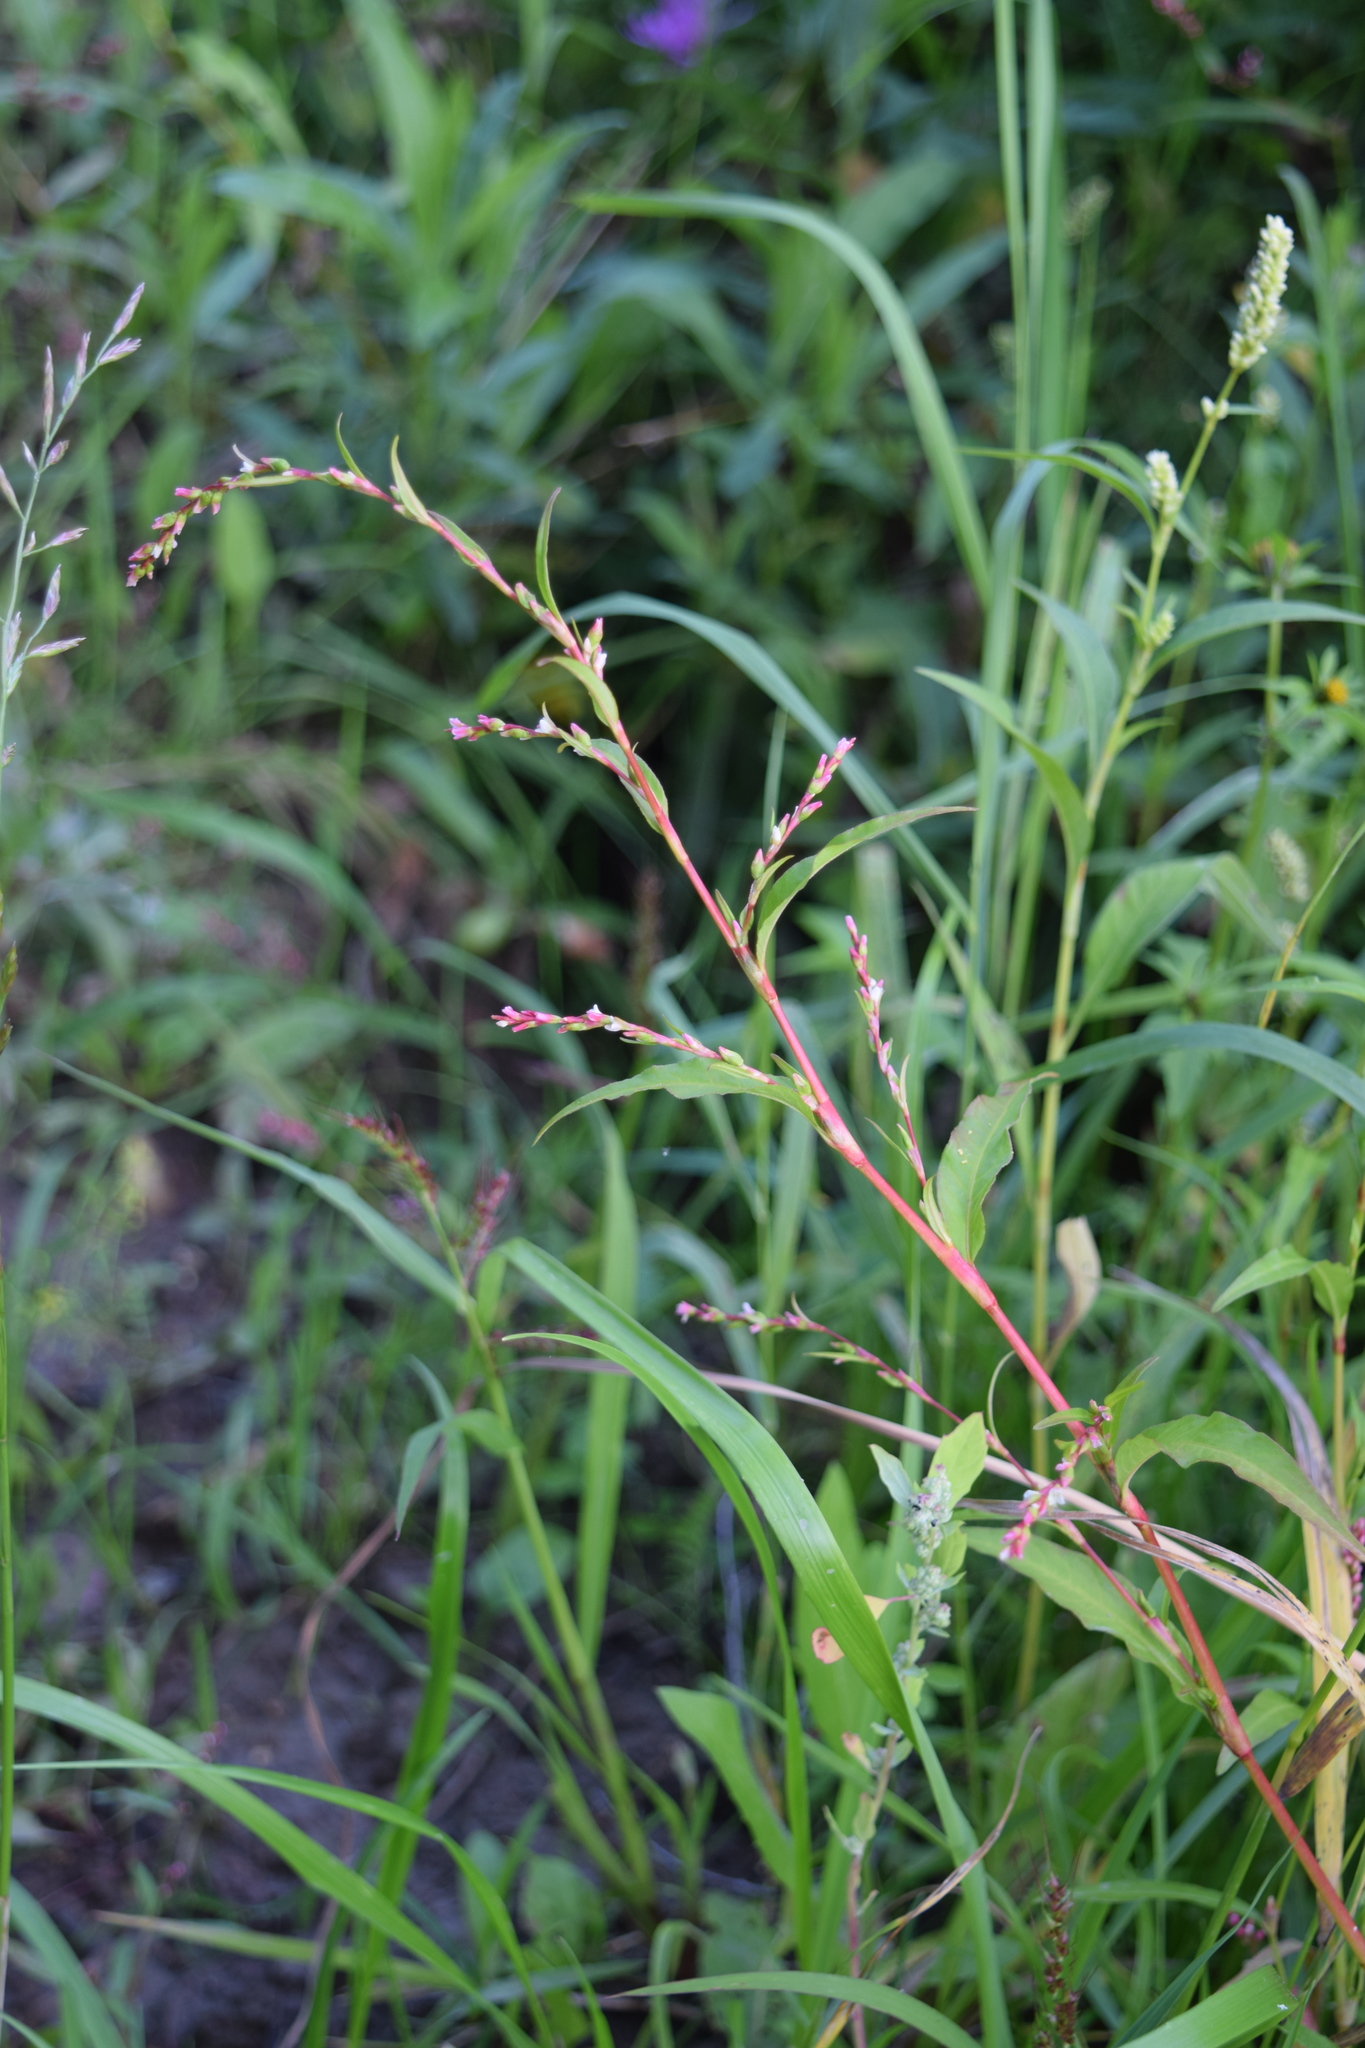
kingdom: Plantae
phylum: Tracheophyta
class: Magnoliopsida
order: Caryophyllales
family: Polygonaceae
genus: Persicaria
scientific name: Persicaria hydropiper
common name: Water-pepper
